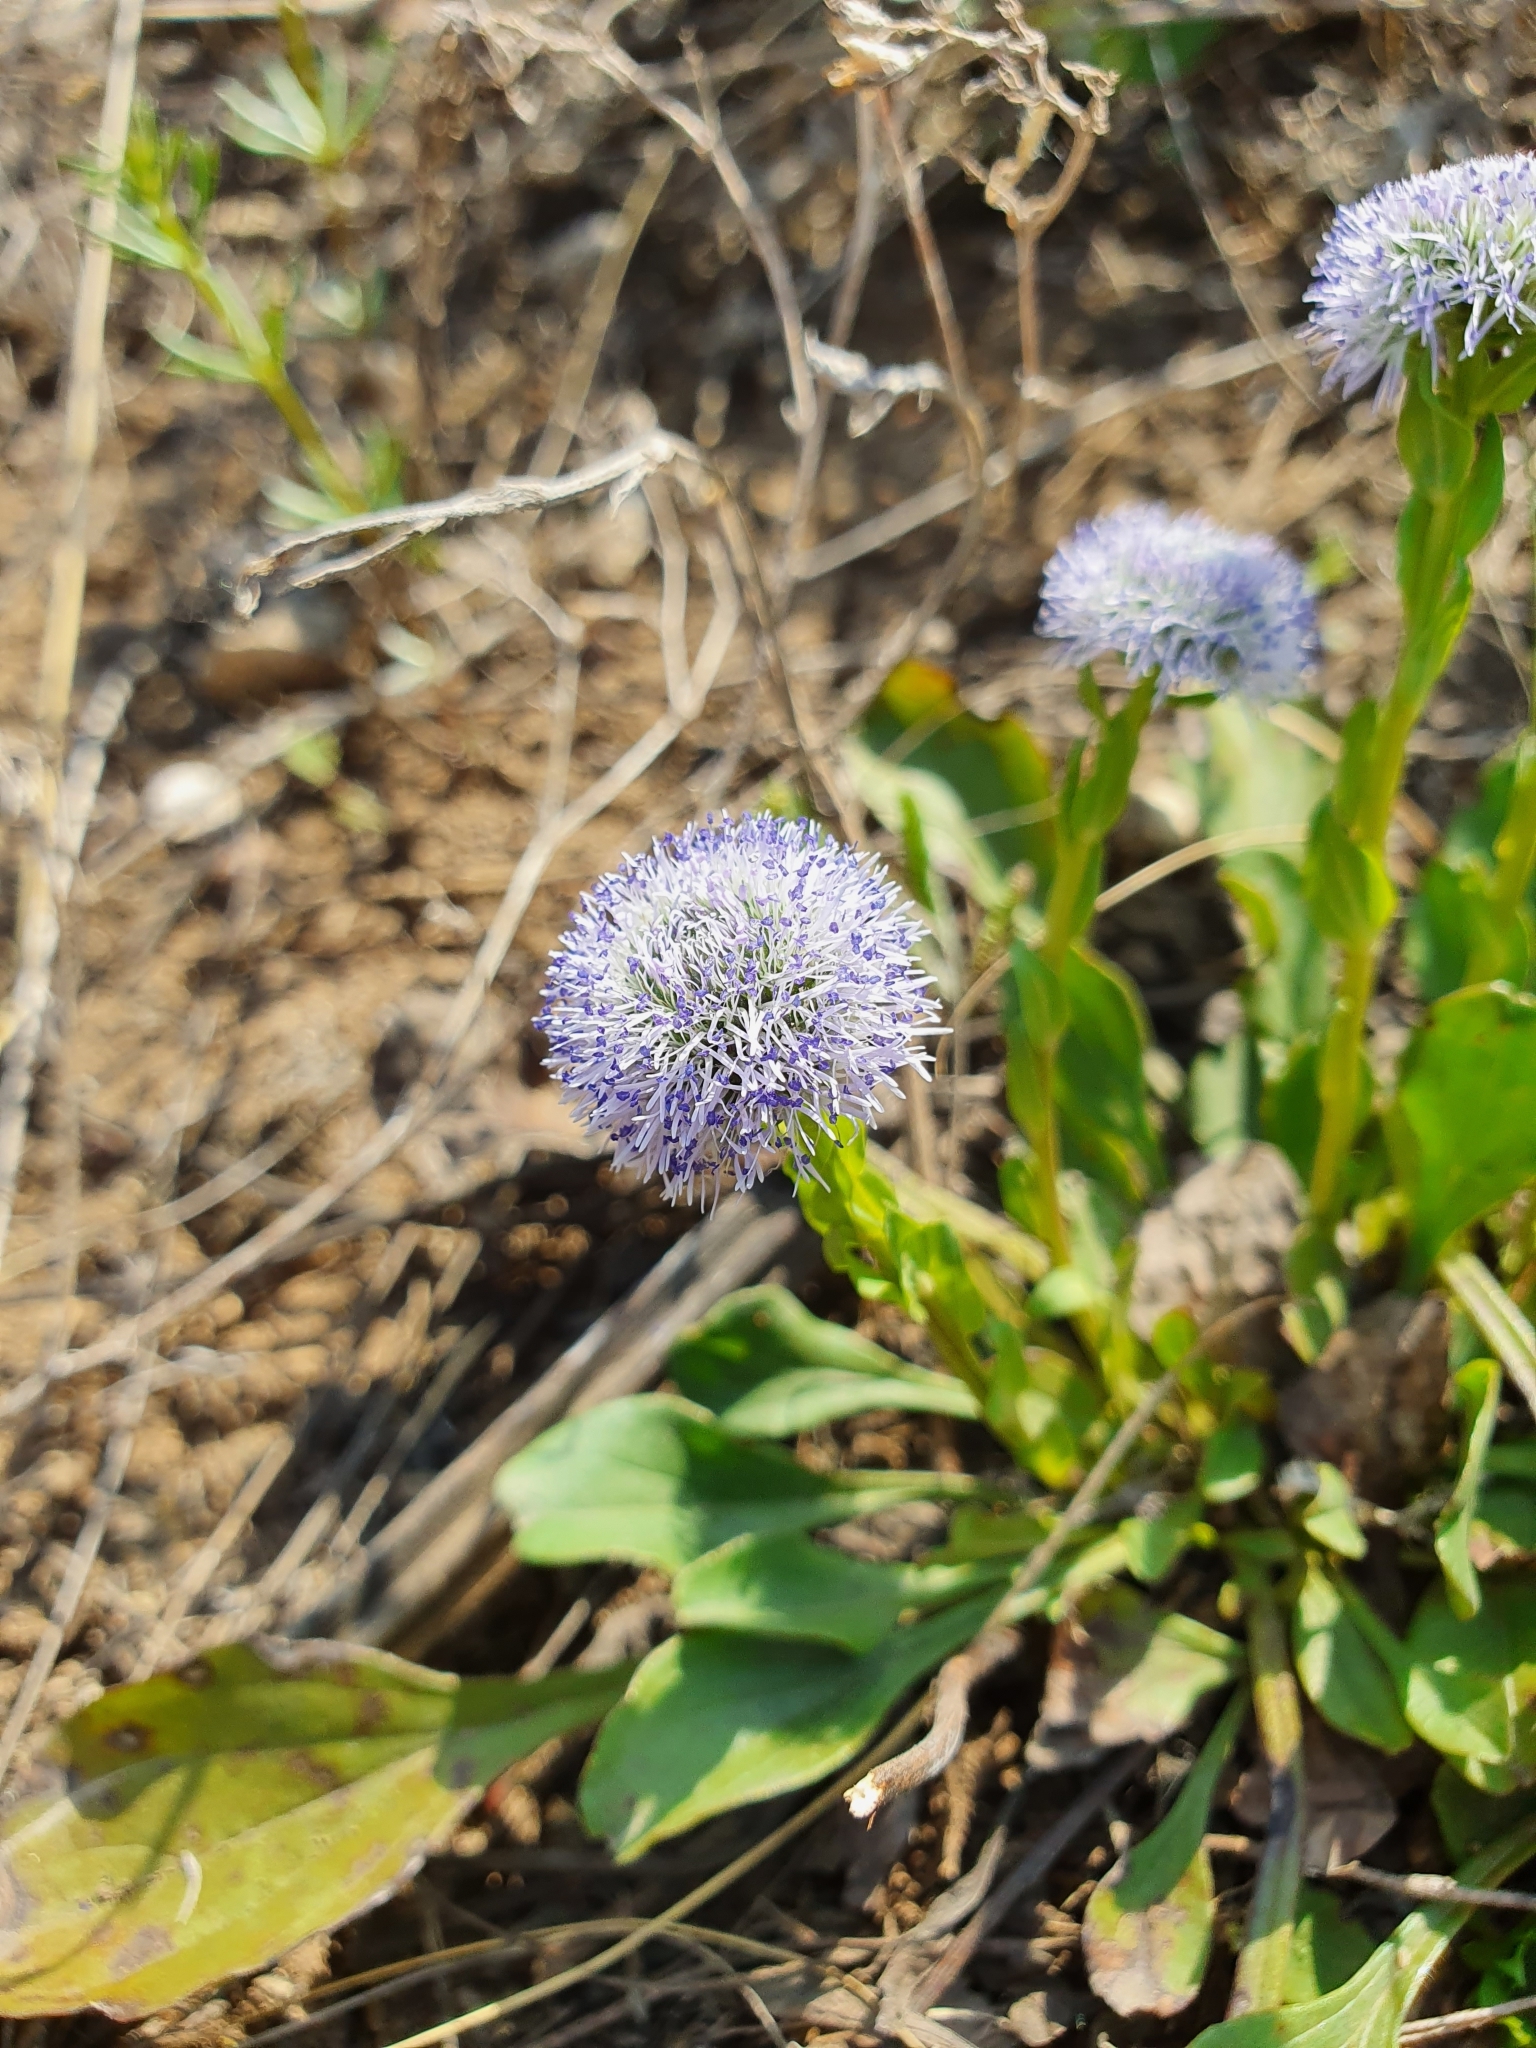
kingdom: Plantae
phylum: Tracheophyta
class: Magnoliopsida
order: Lamiales
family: Plantaginaceae
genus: Globularia
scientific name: Globularia bisnagarica
